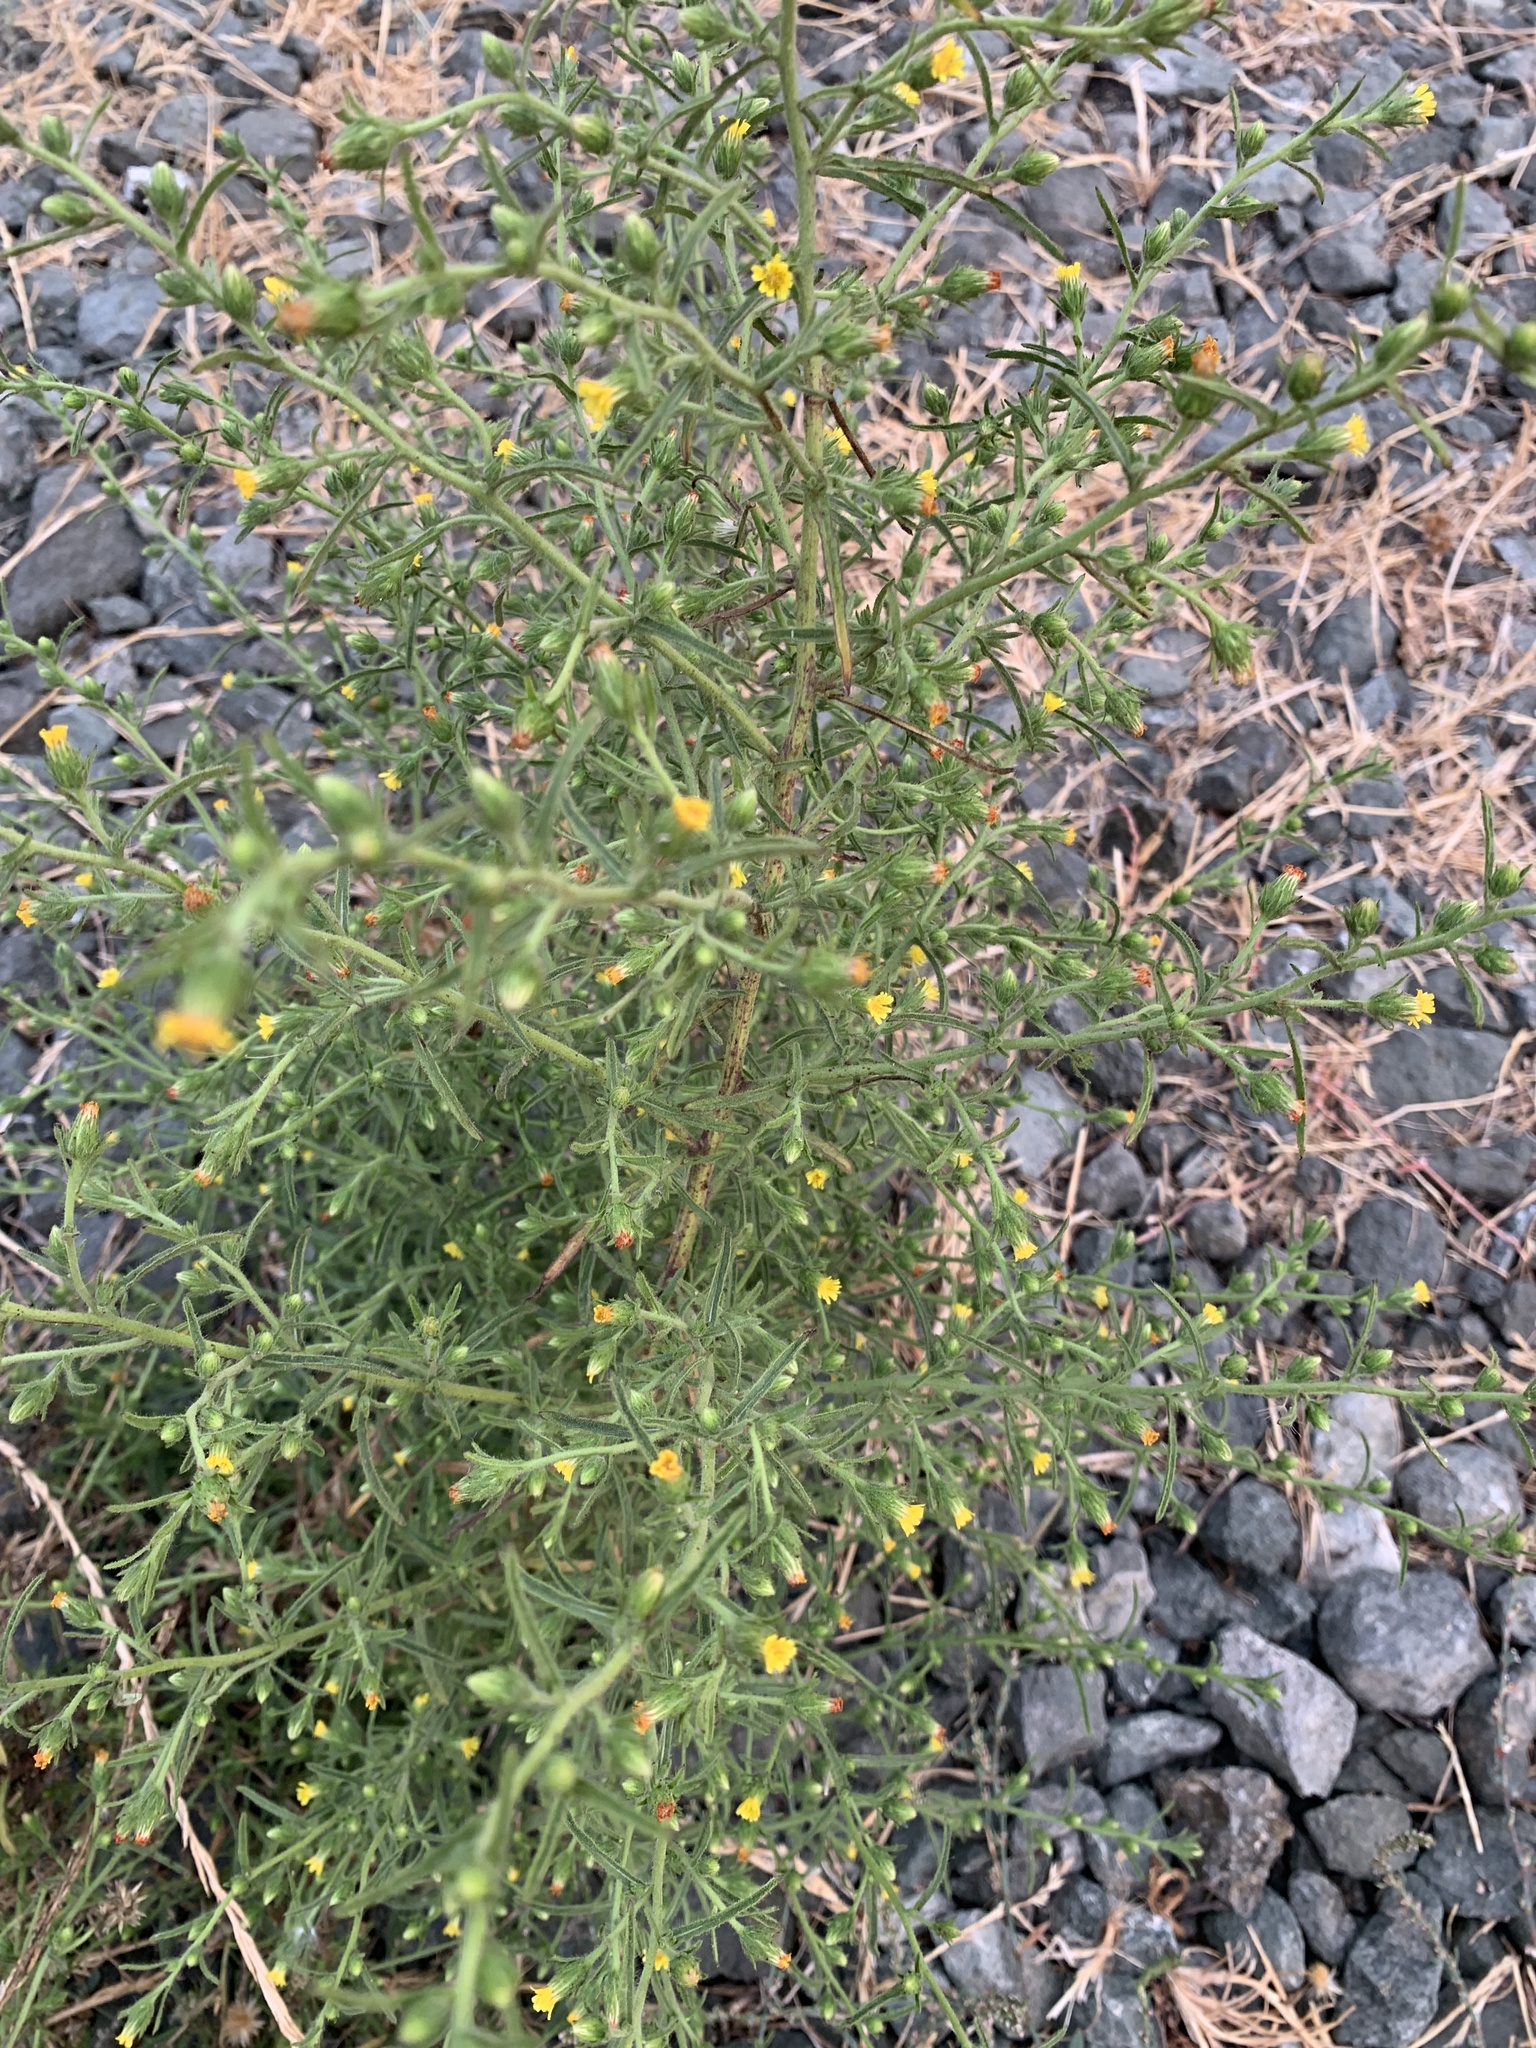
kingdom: Plantae
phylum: Tracheophyta
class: Magnoliopsida
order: Asterales
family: Asteraceae
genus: Dittrichia
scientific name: Dittrichia graveolens
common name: Stinking fleabane
